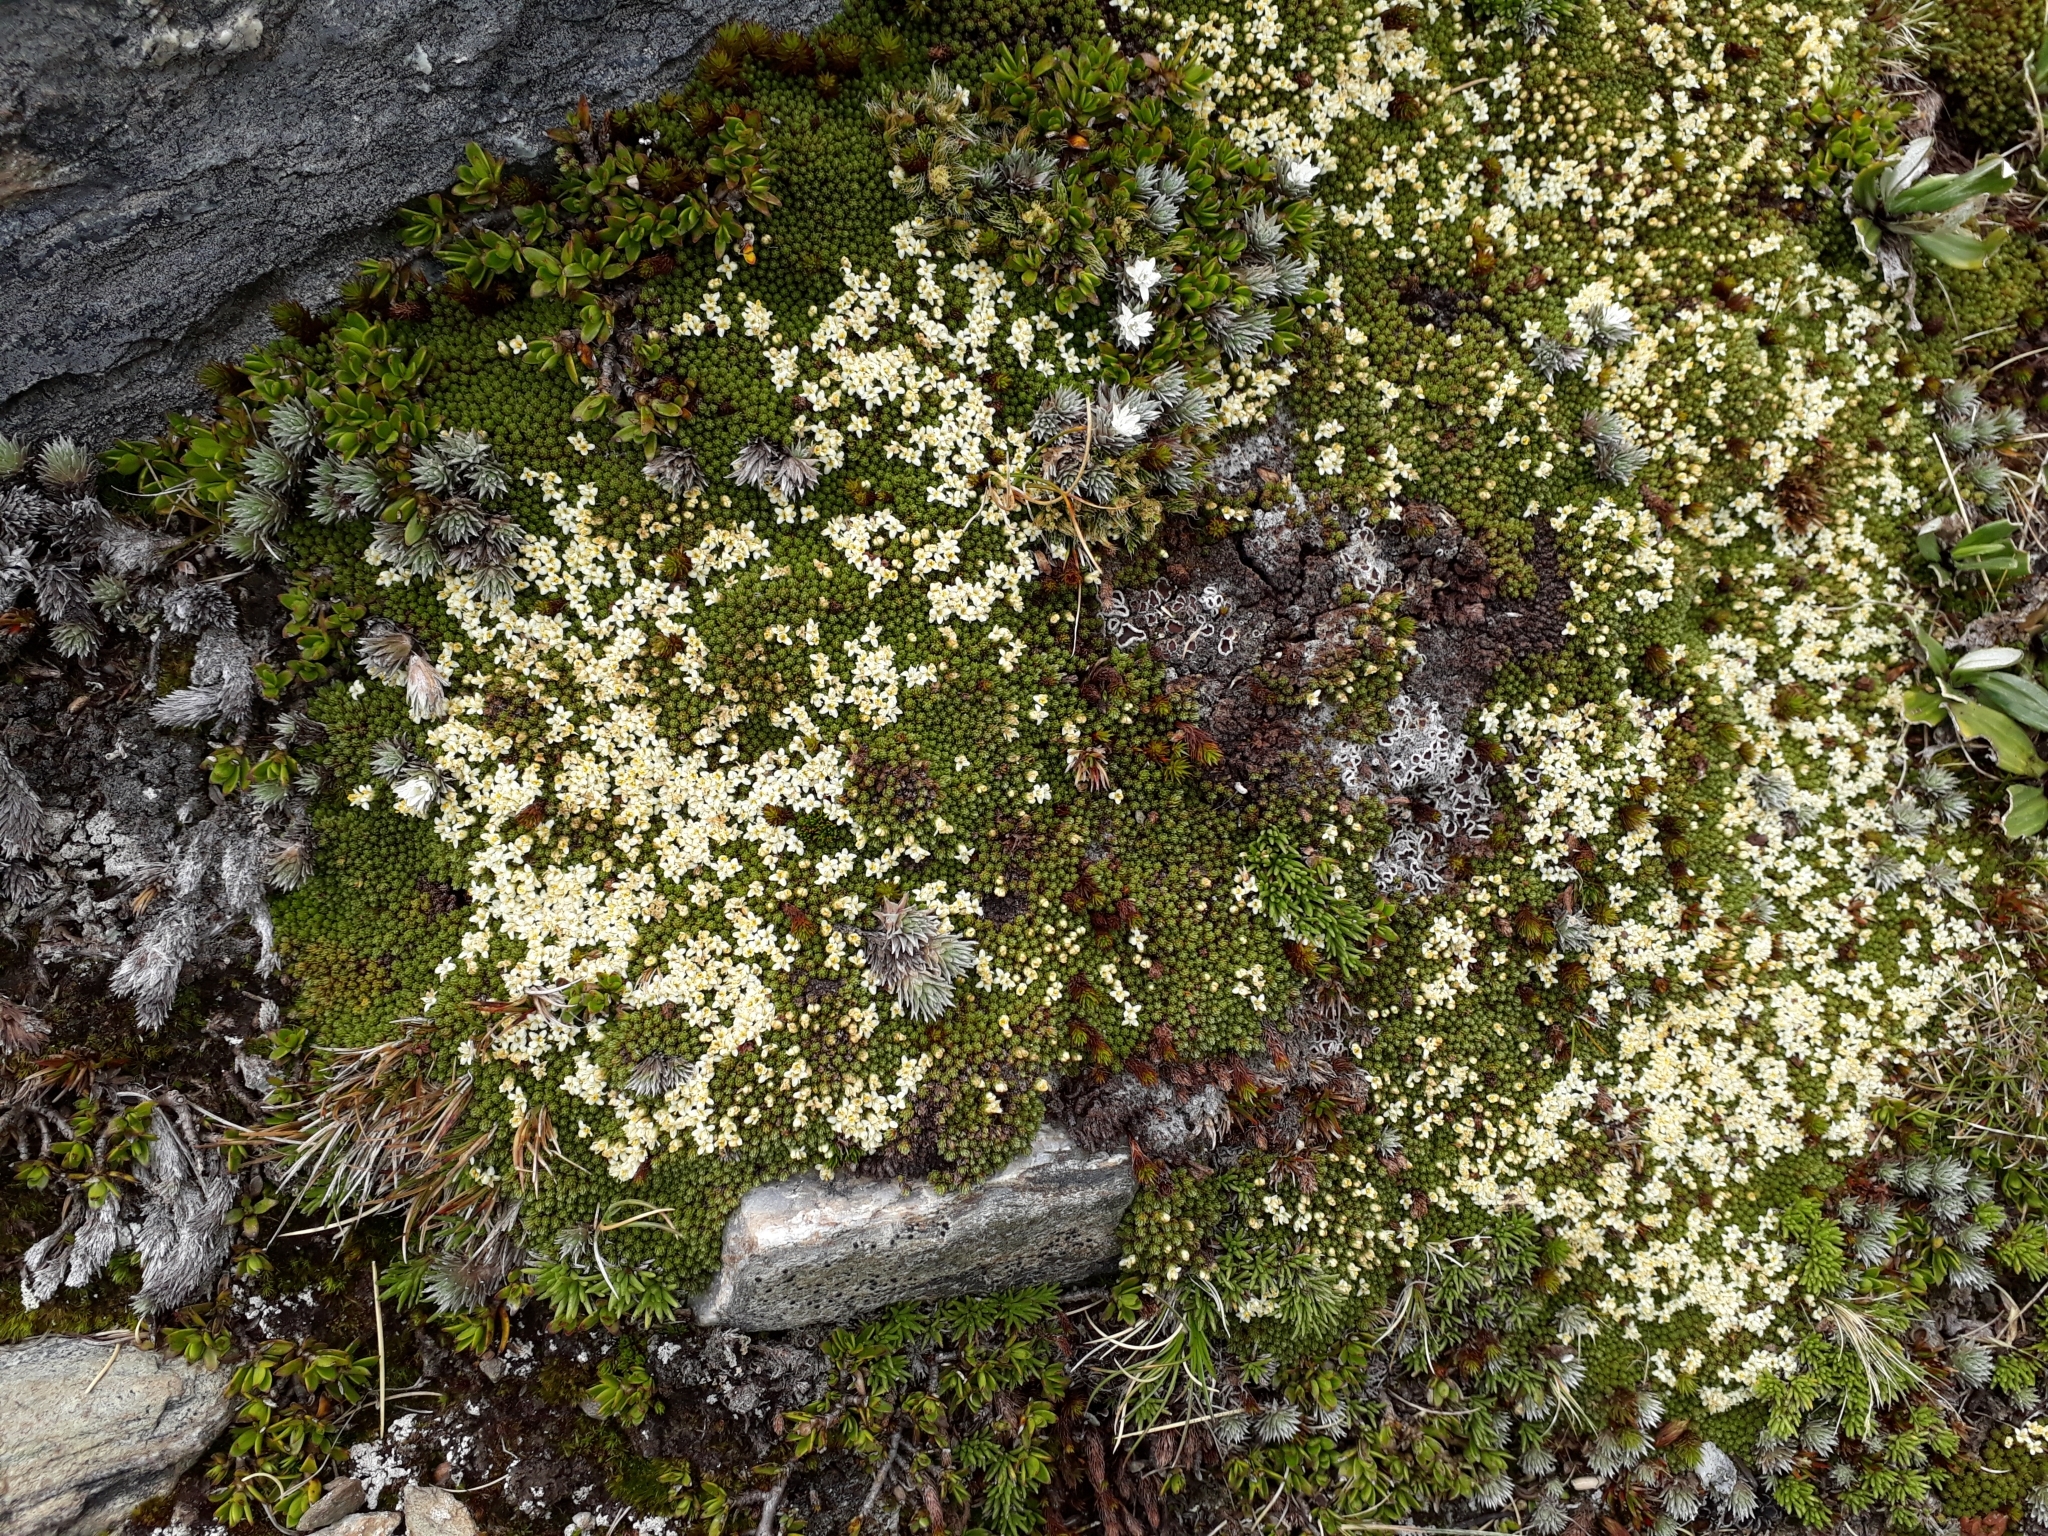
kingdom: Plantae
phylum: Tracheophyta
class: Magnoliopsida
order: Malvales
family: Thymelaeaceae
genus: Kelleria
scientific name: Kelleria childii
